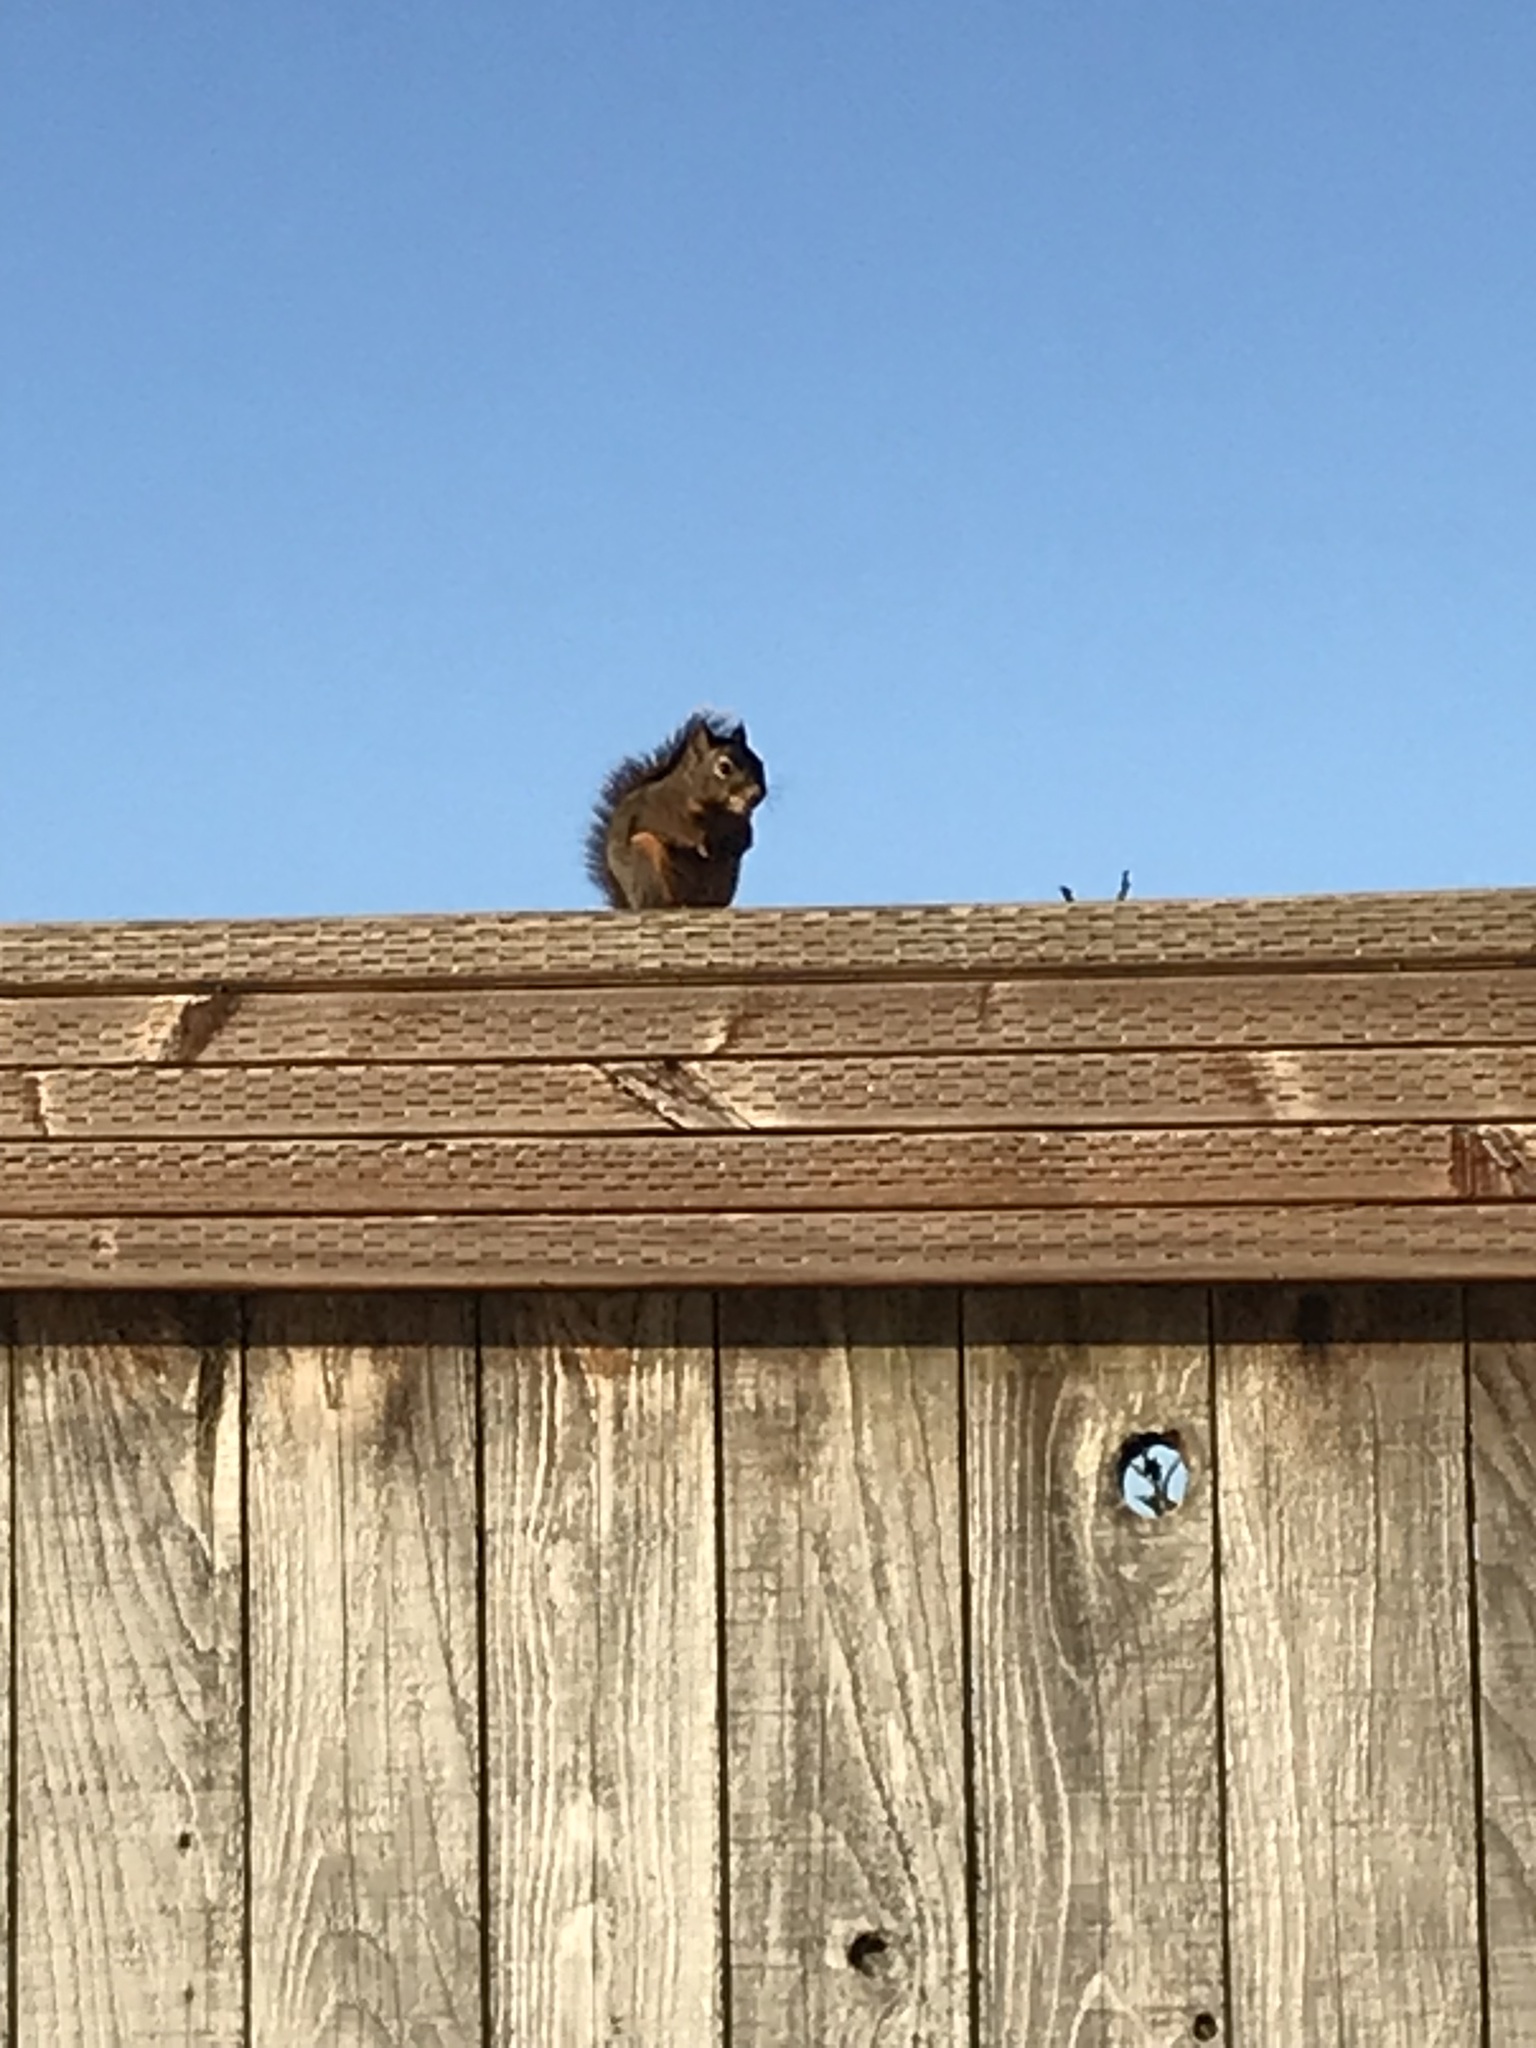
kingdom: Animalia
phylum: Chordata
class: Mammalia
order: Rodentia
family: Sciuridae
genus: Tamiasciurus
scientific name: Tamiasciurus douglasii
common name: Douglas's squirrel
